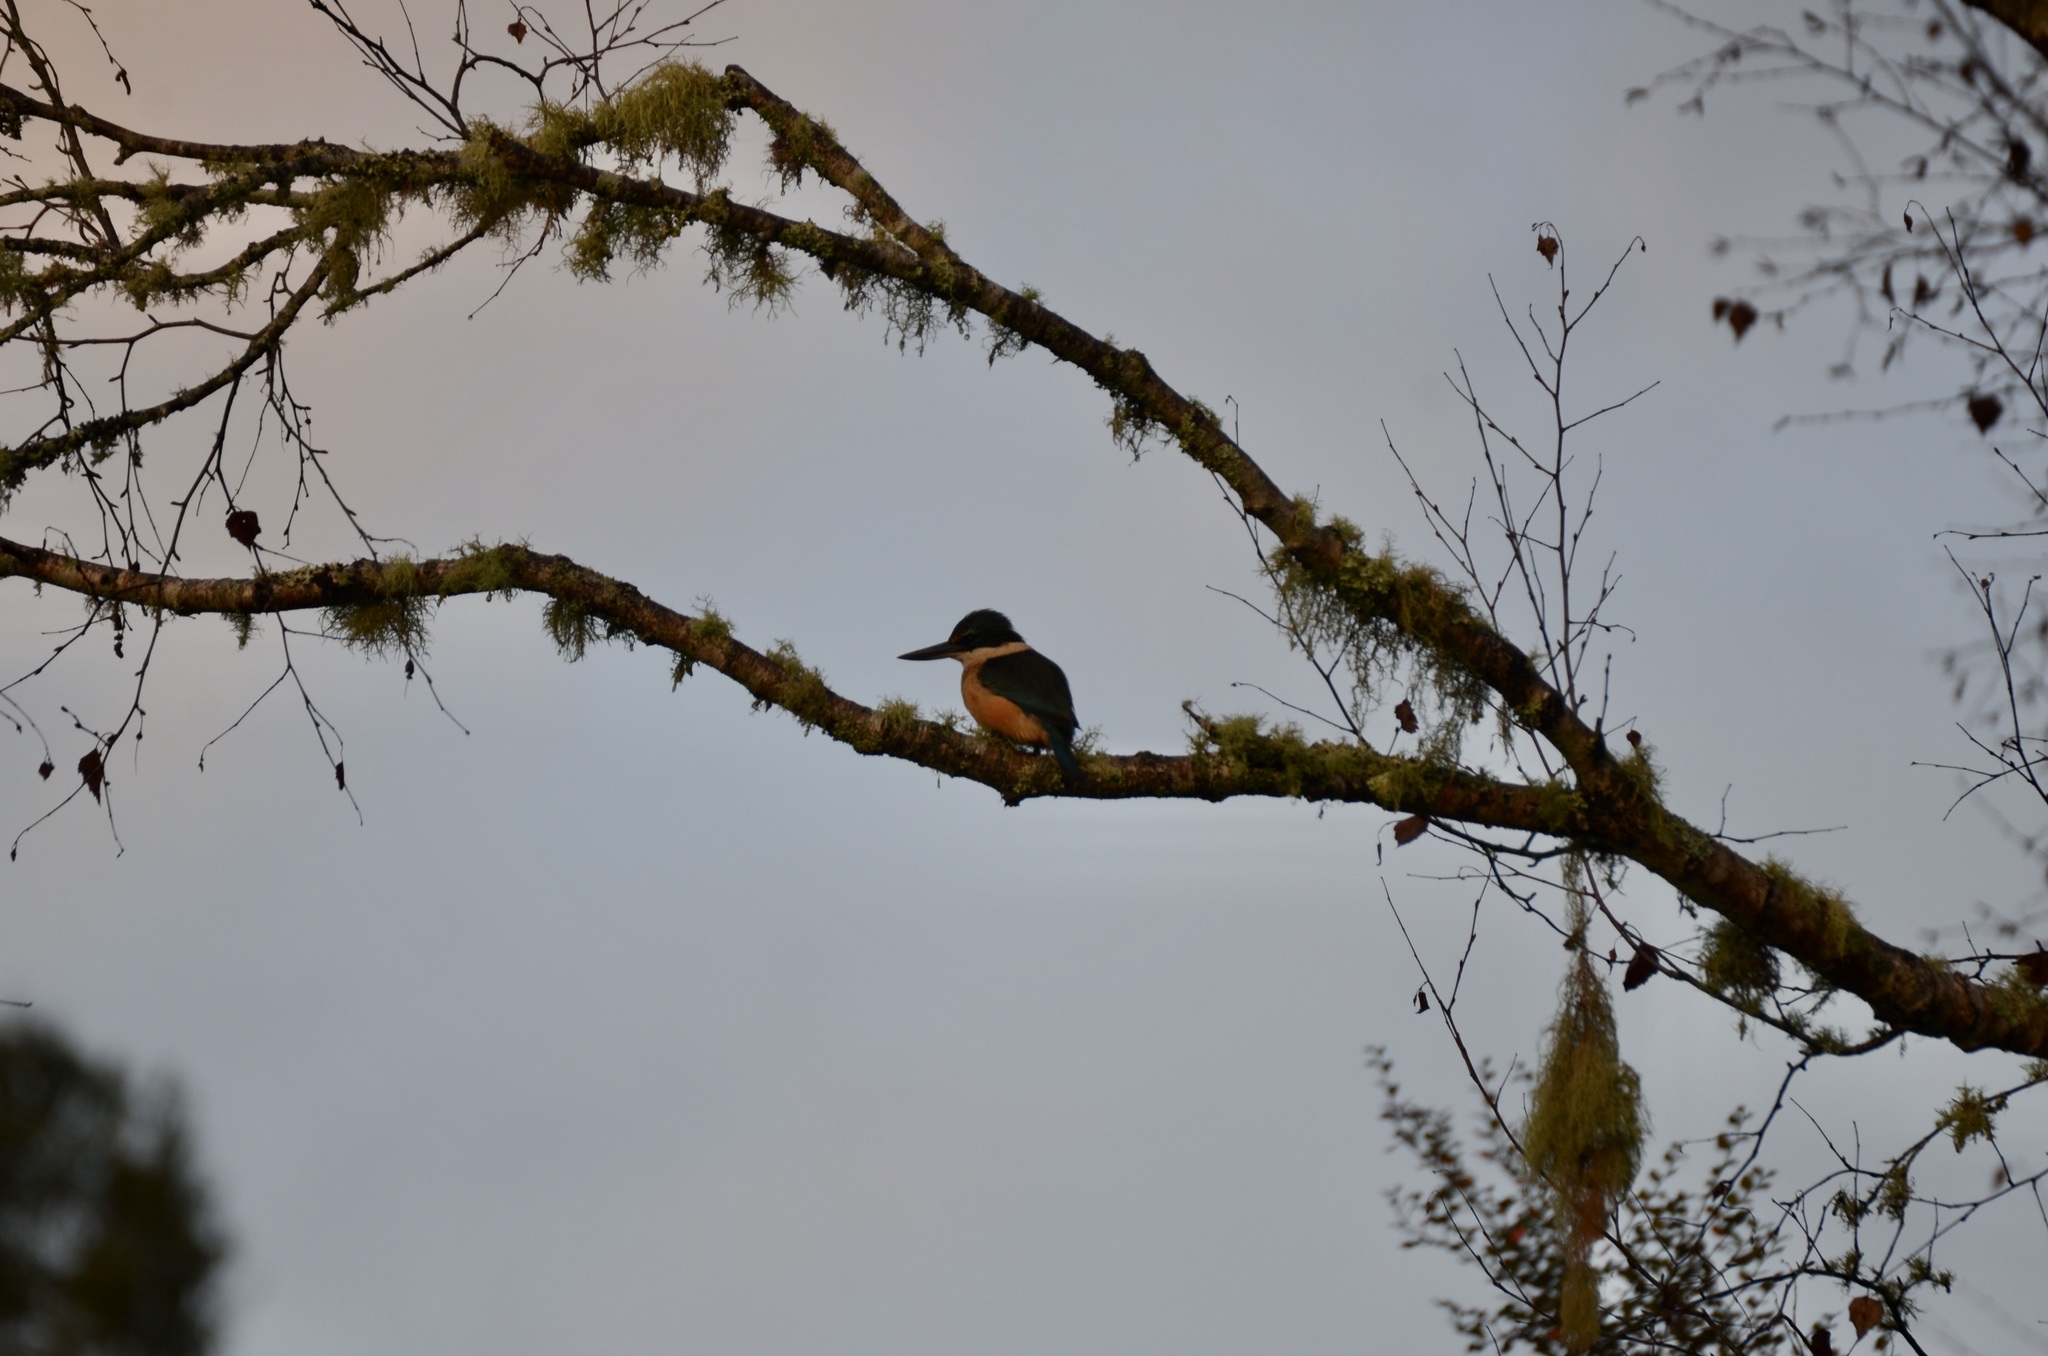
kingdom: Animalia
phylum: Chordata
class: Aves
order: Coraciiformes
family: Alcedinidae
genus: Todiramphus
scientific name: Todiramphus sanctus
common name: Sacred kingfisher
